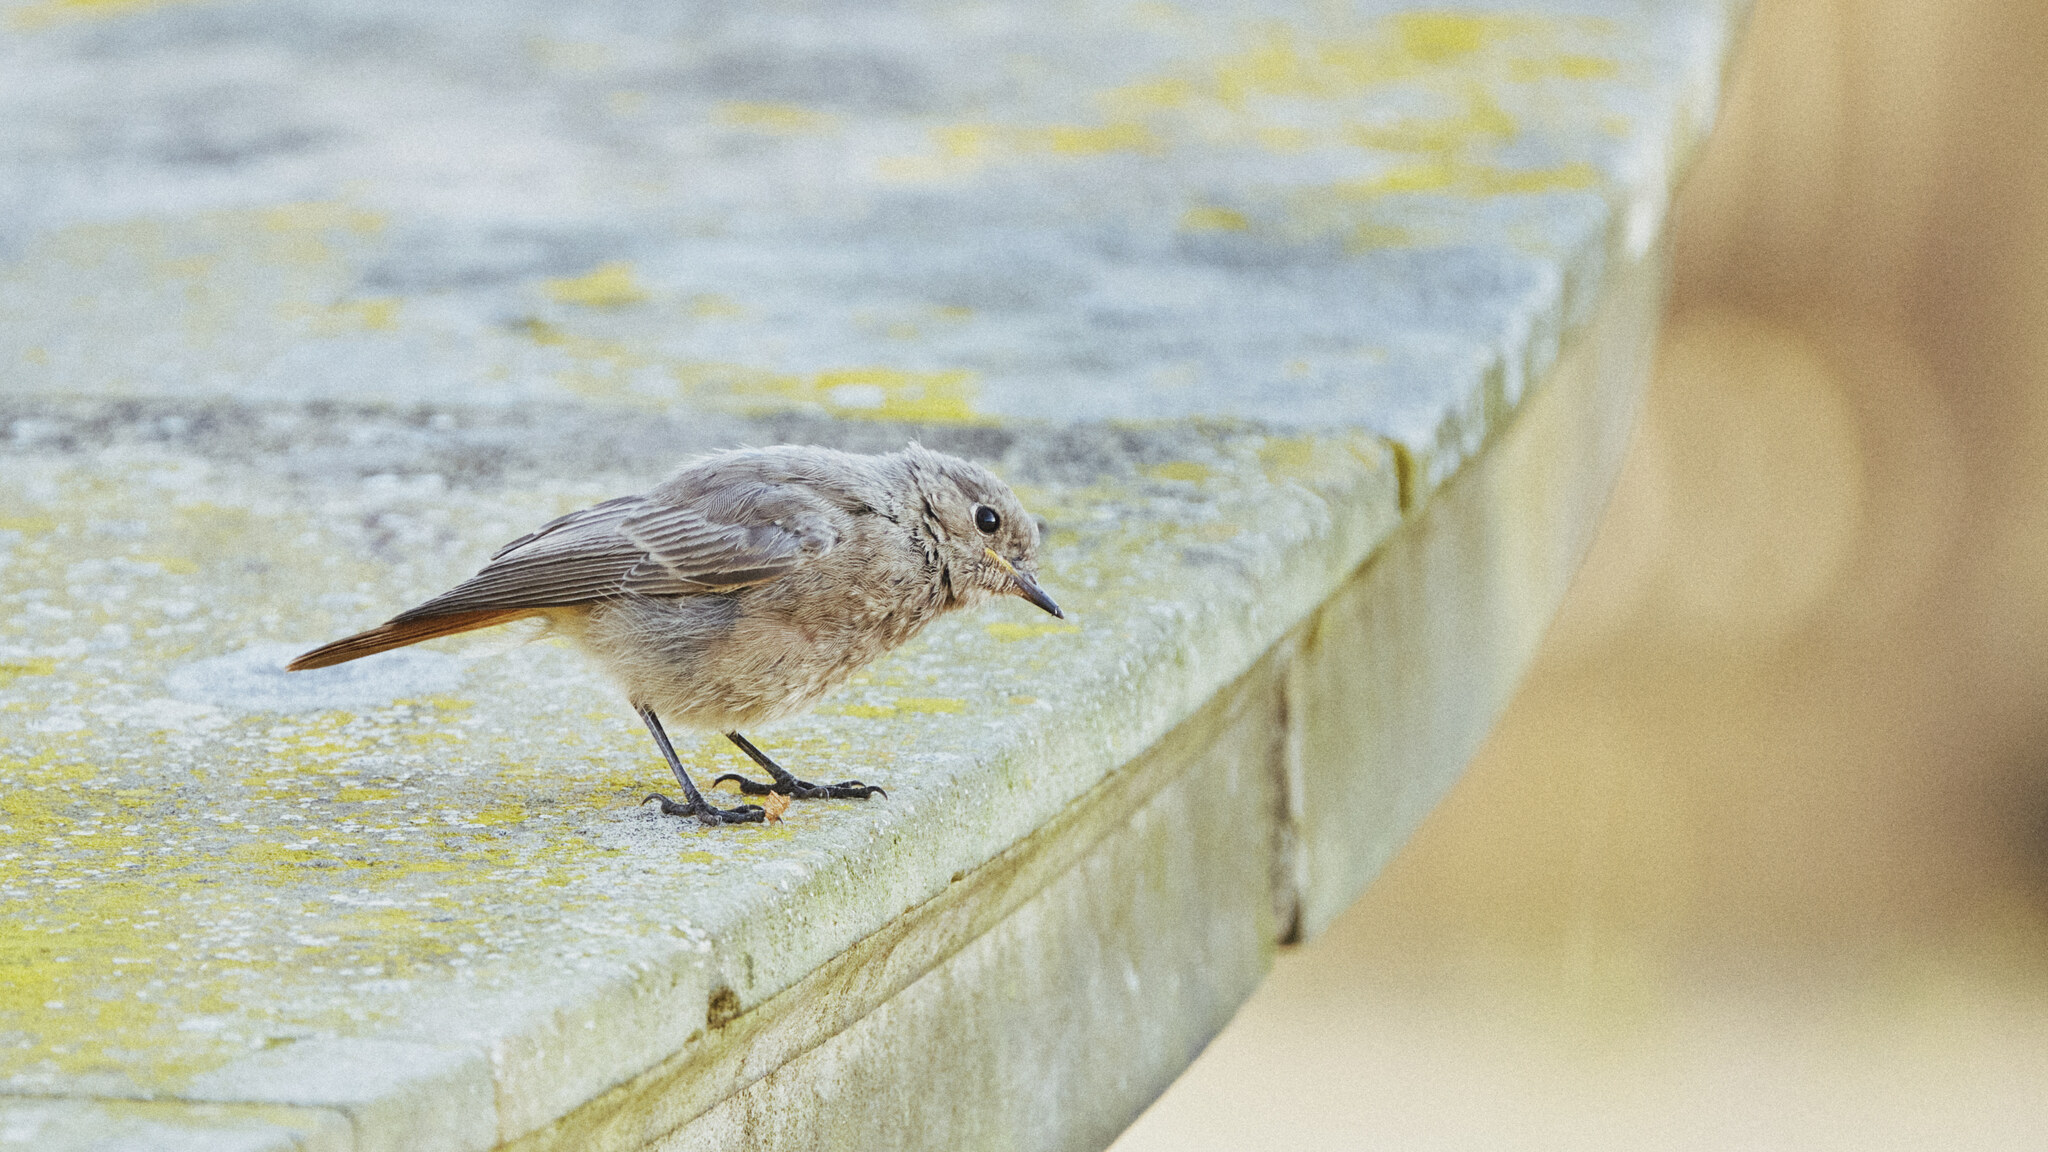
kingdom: Animalia
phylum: Chordata
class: Aves
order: Passeriformes
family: Muscicapidae
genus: Phoenicurus
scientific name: Phoenicurus ochruros
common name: Black redstart
